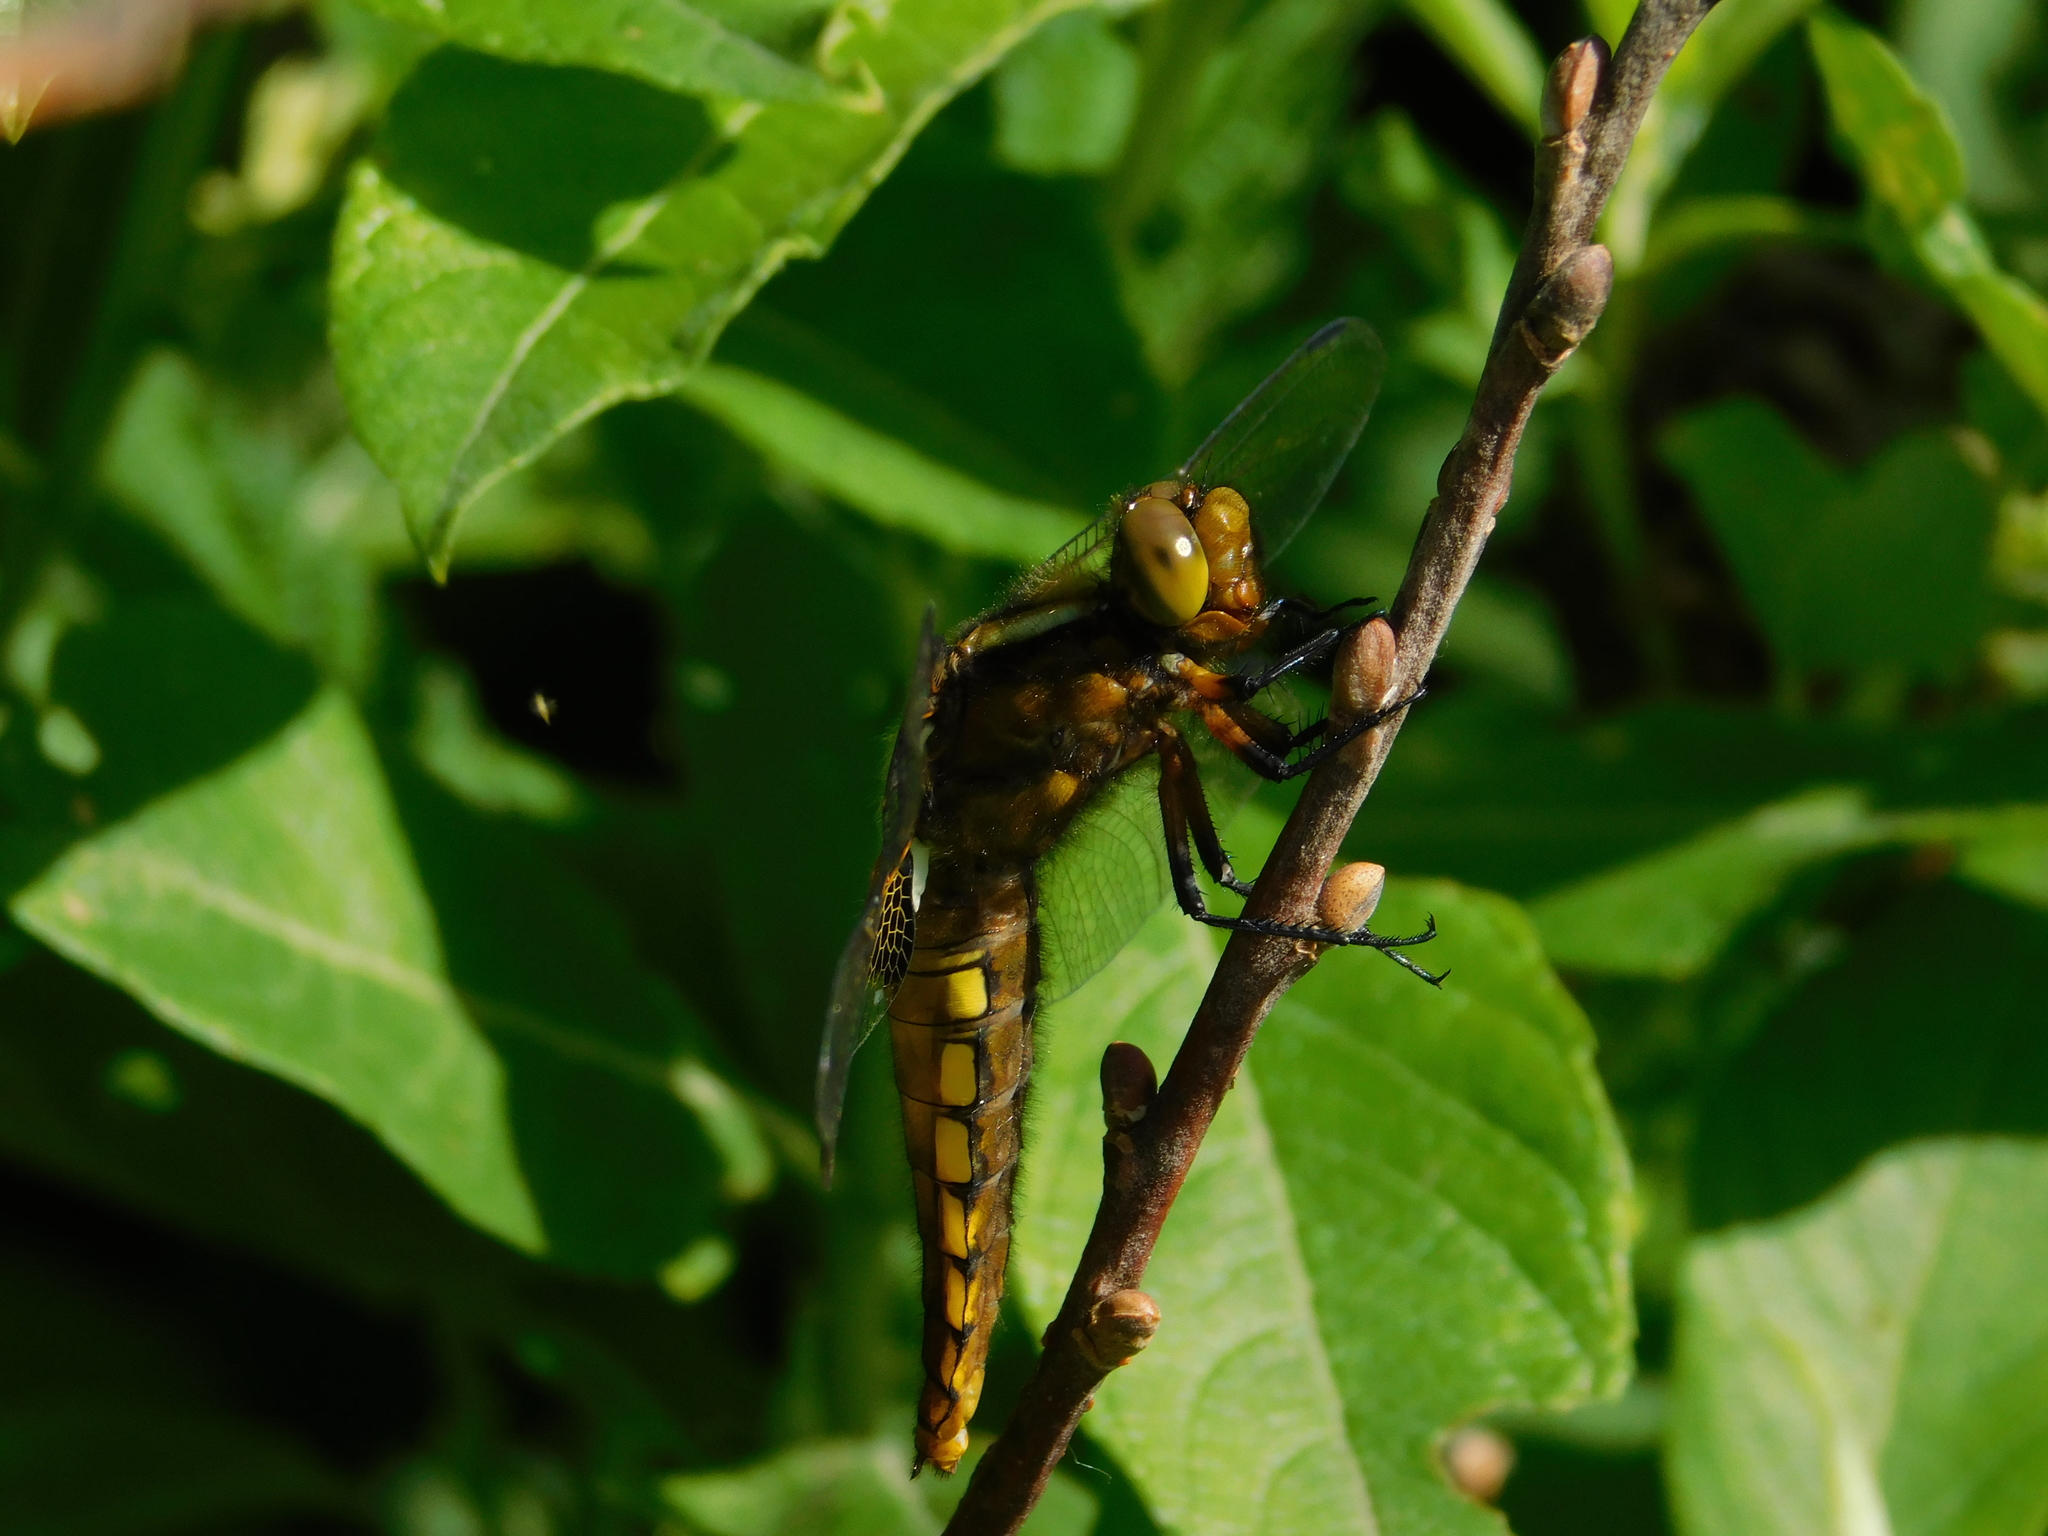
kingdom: Animalia
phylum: Arthropoda
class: Insecta
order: Odonata
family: Libellulidae
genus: Libellula
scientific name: Libellula depressa
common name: Broad-bodied chaser
